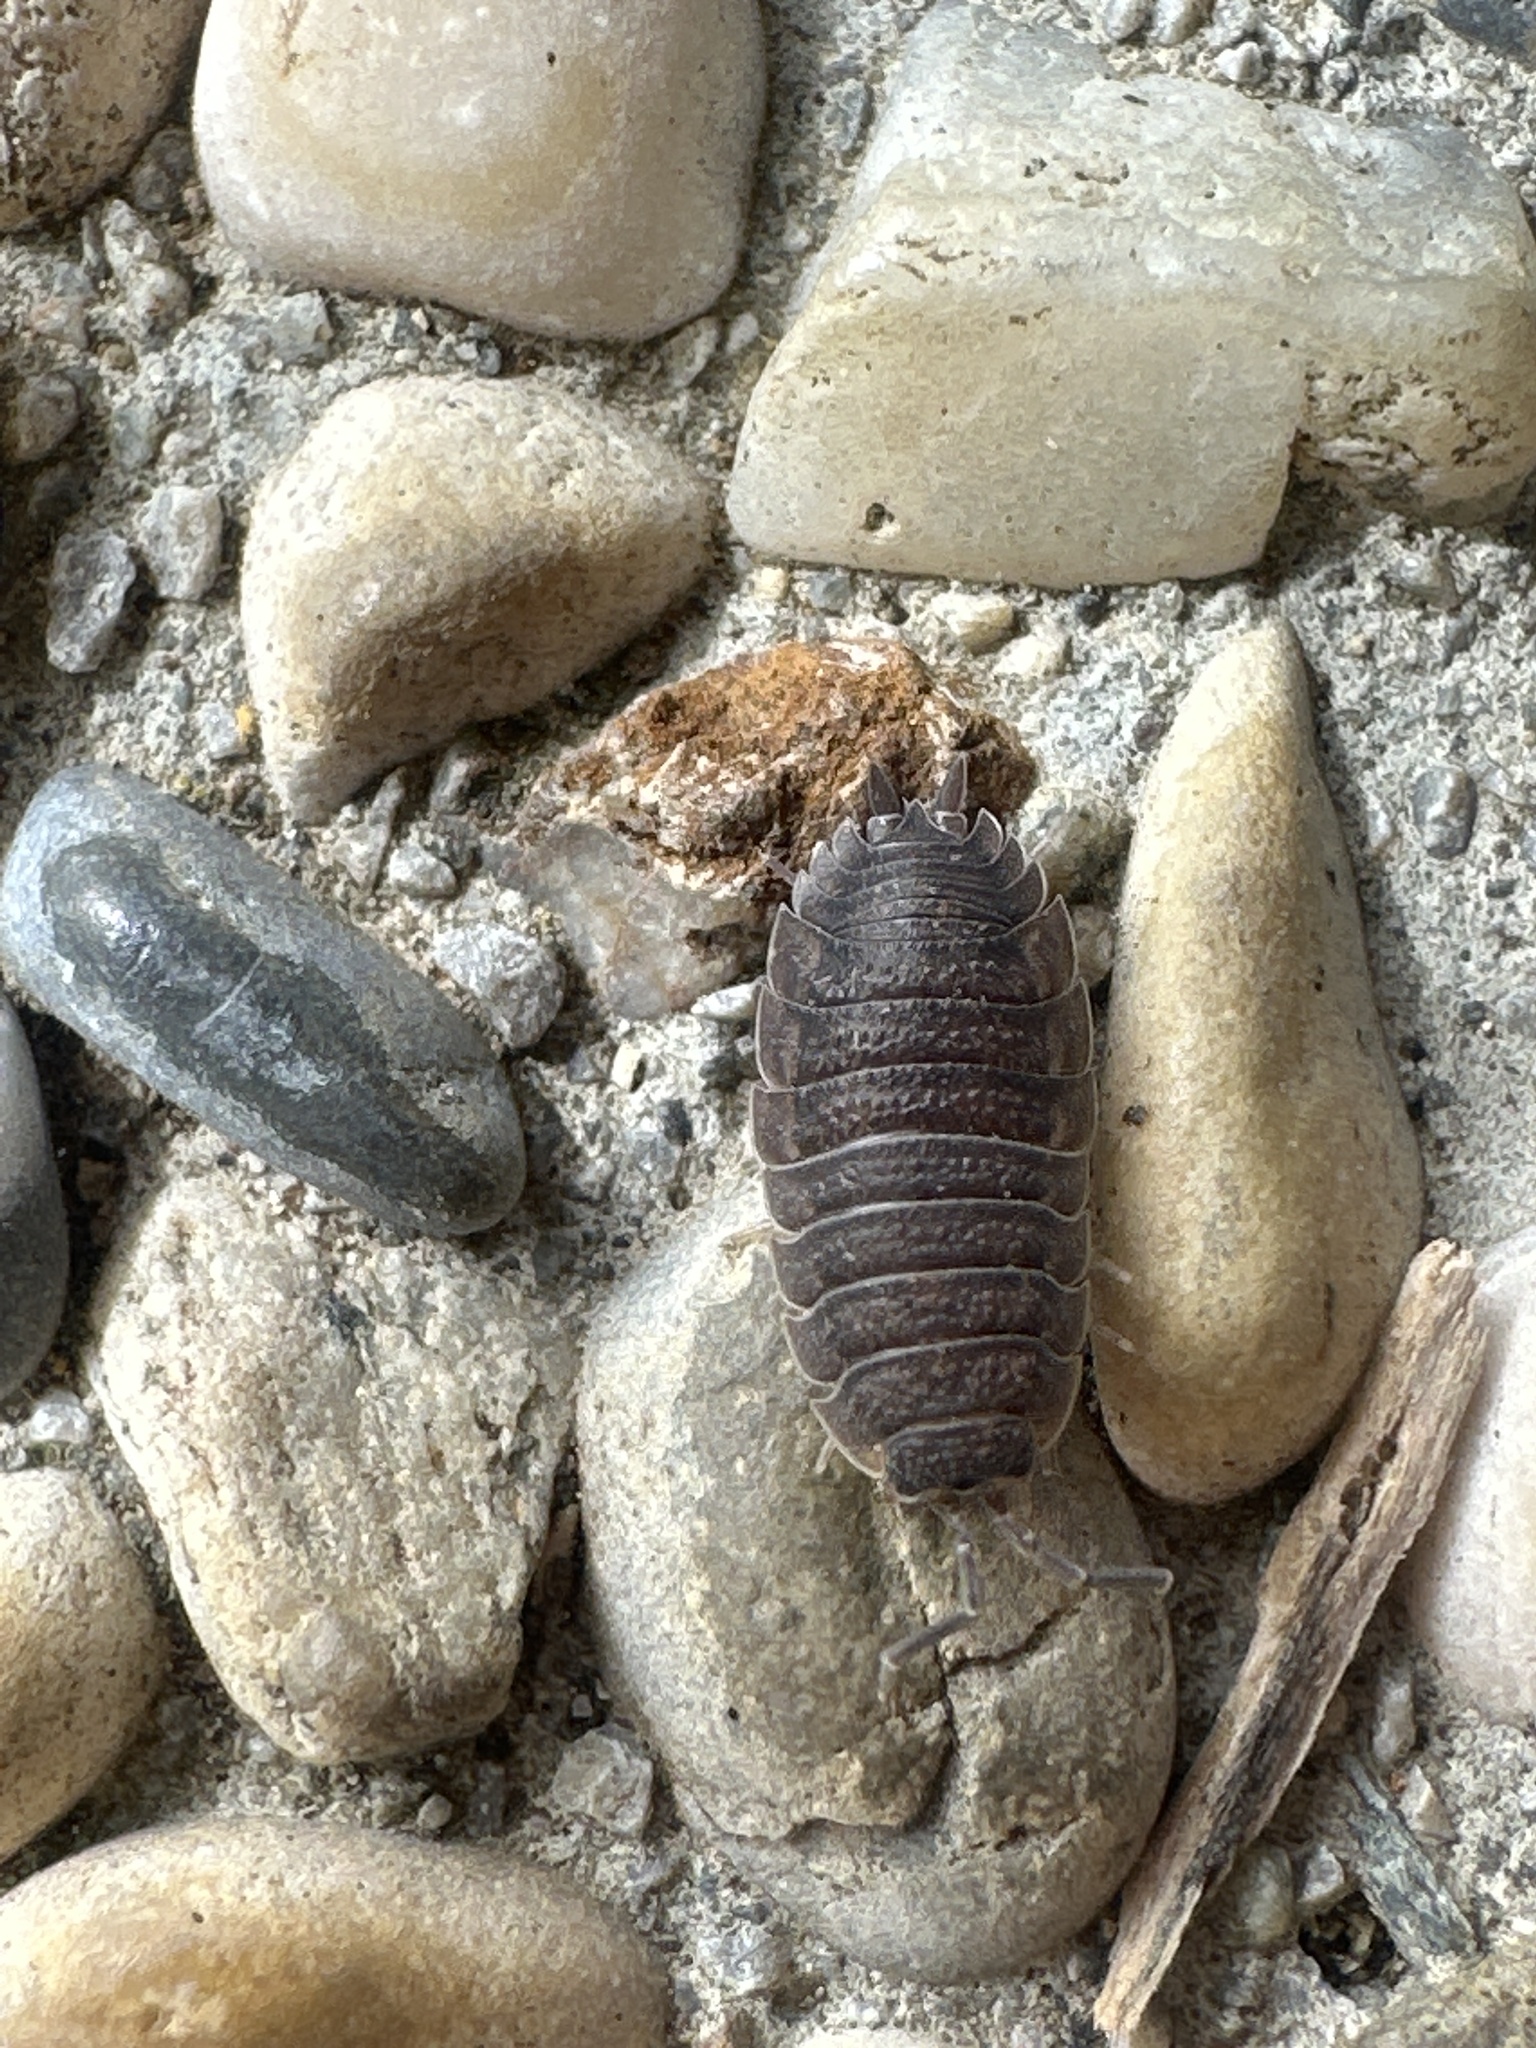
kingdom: Animalia
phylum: Arthropoda
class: Malacostraca
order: Isopoda
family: Porcellionidae
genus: Porcellio
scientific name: Porcellio scaber
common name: Common rough woodlouse
